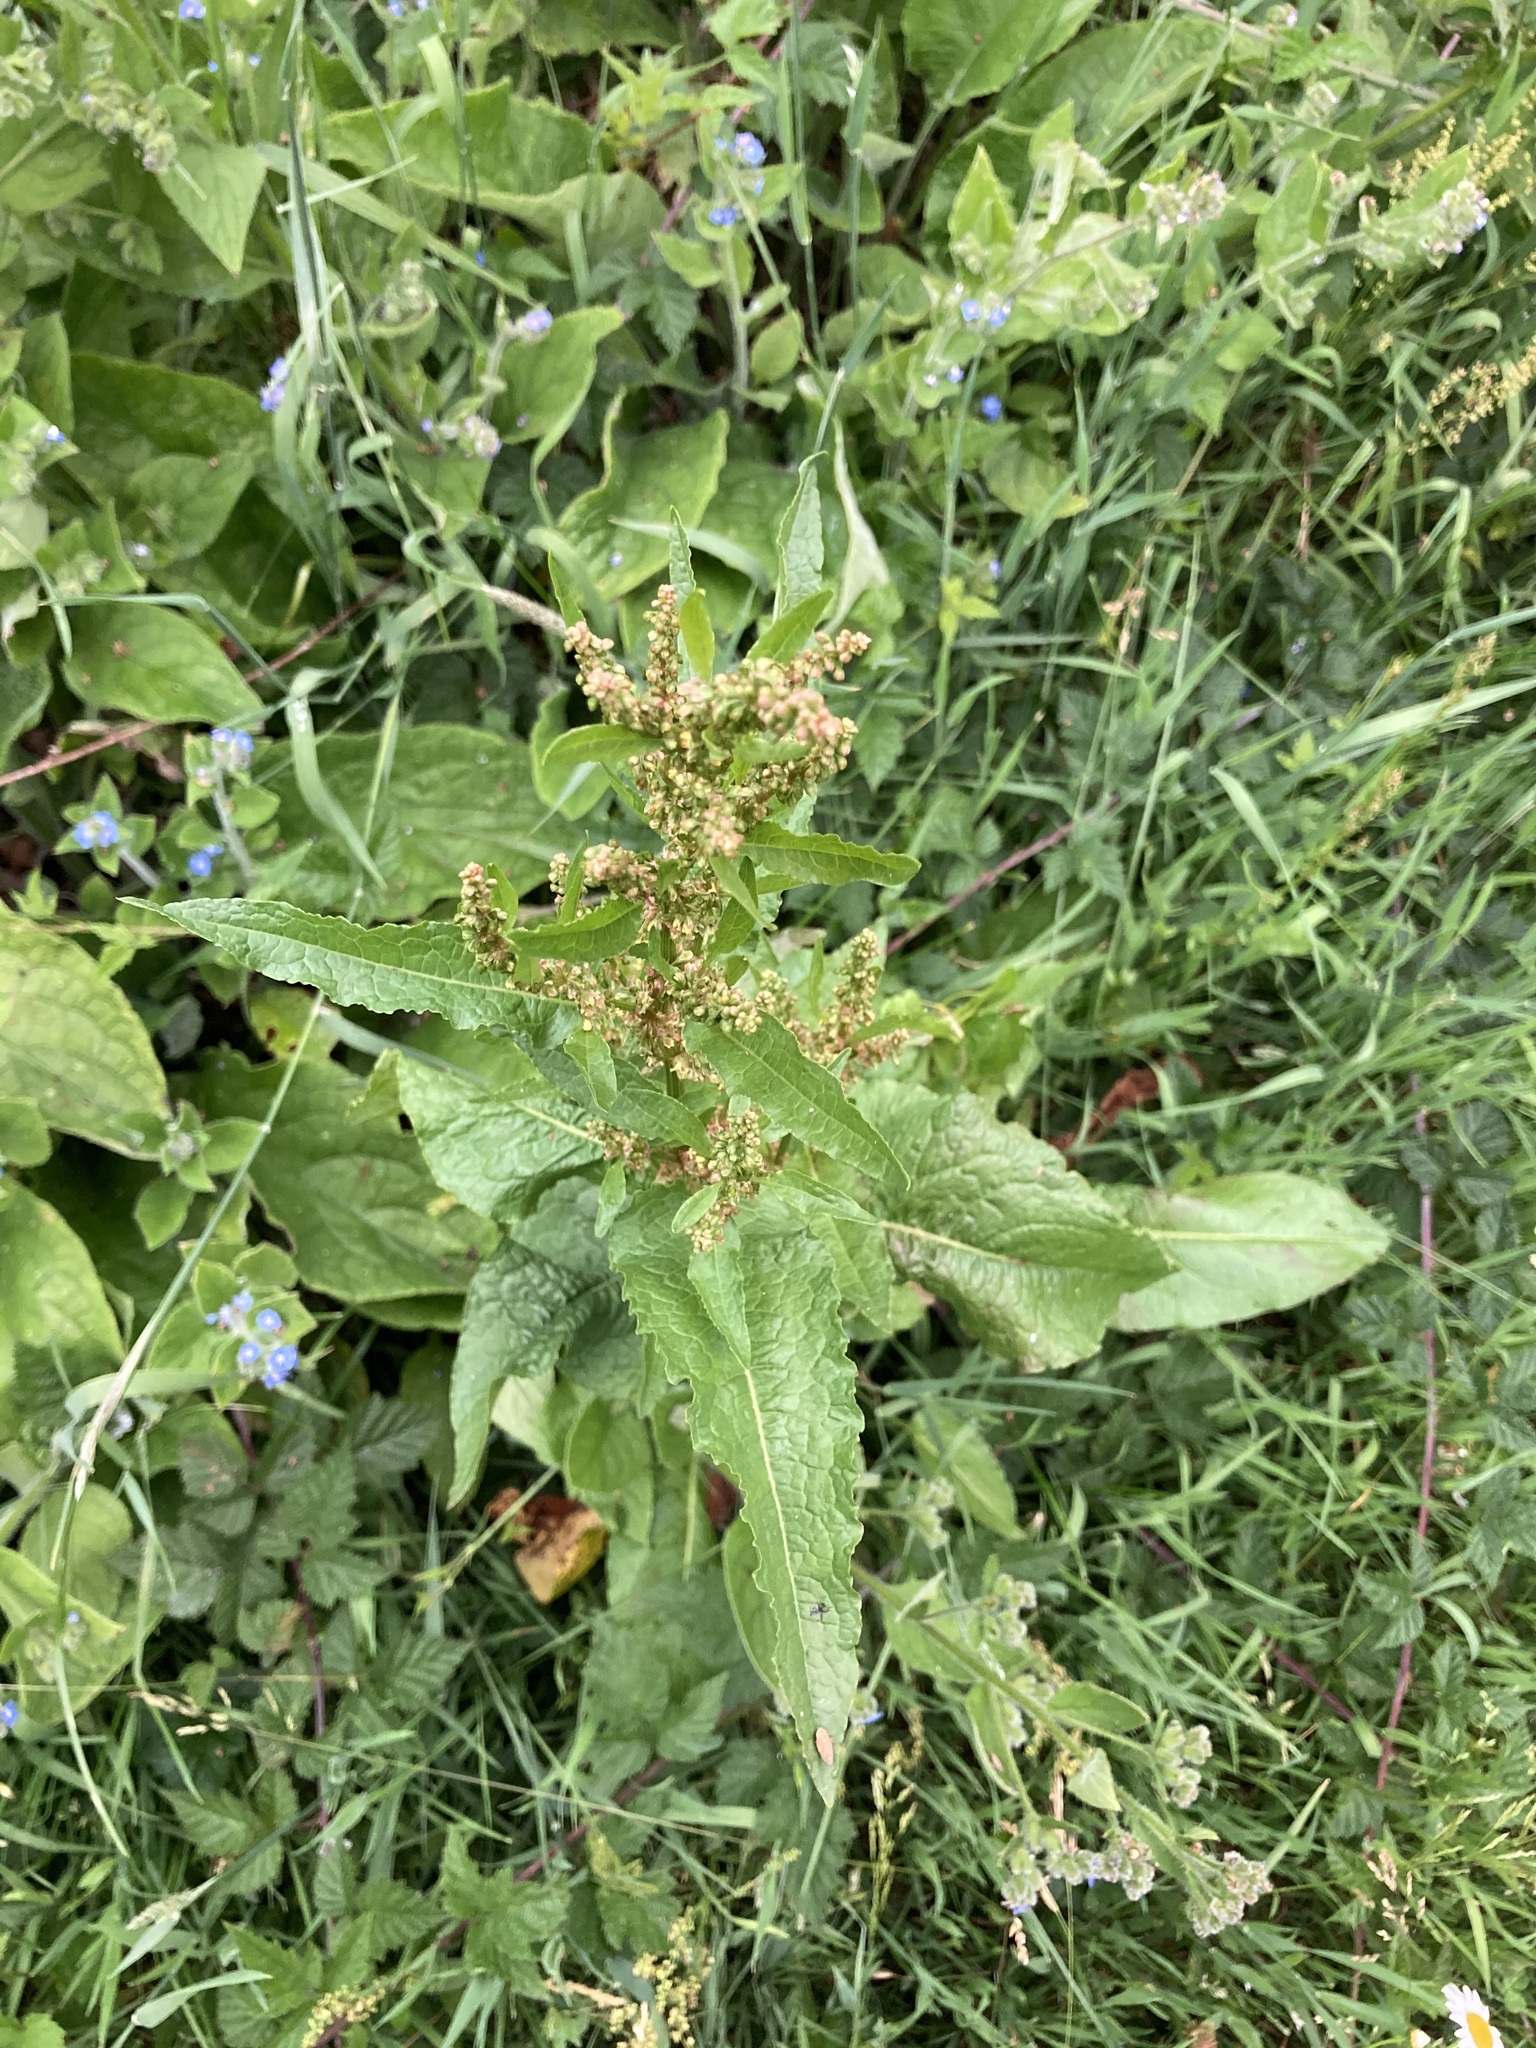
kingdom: Plantae
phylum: Tracheophyta
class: Magnoliopsida
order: Caryophyllales
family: Polygonaceae
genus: Rumex
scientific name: Rumex crispus
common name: Curled dock
